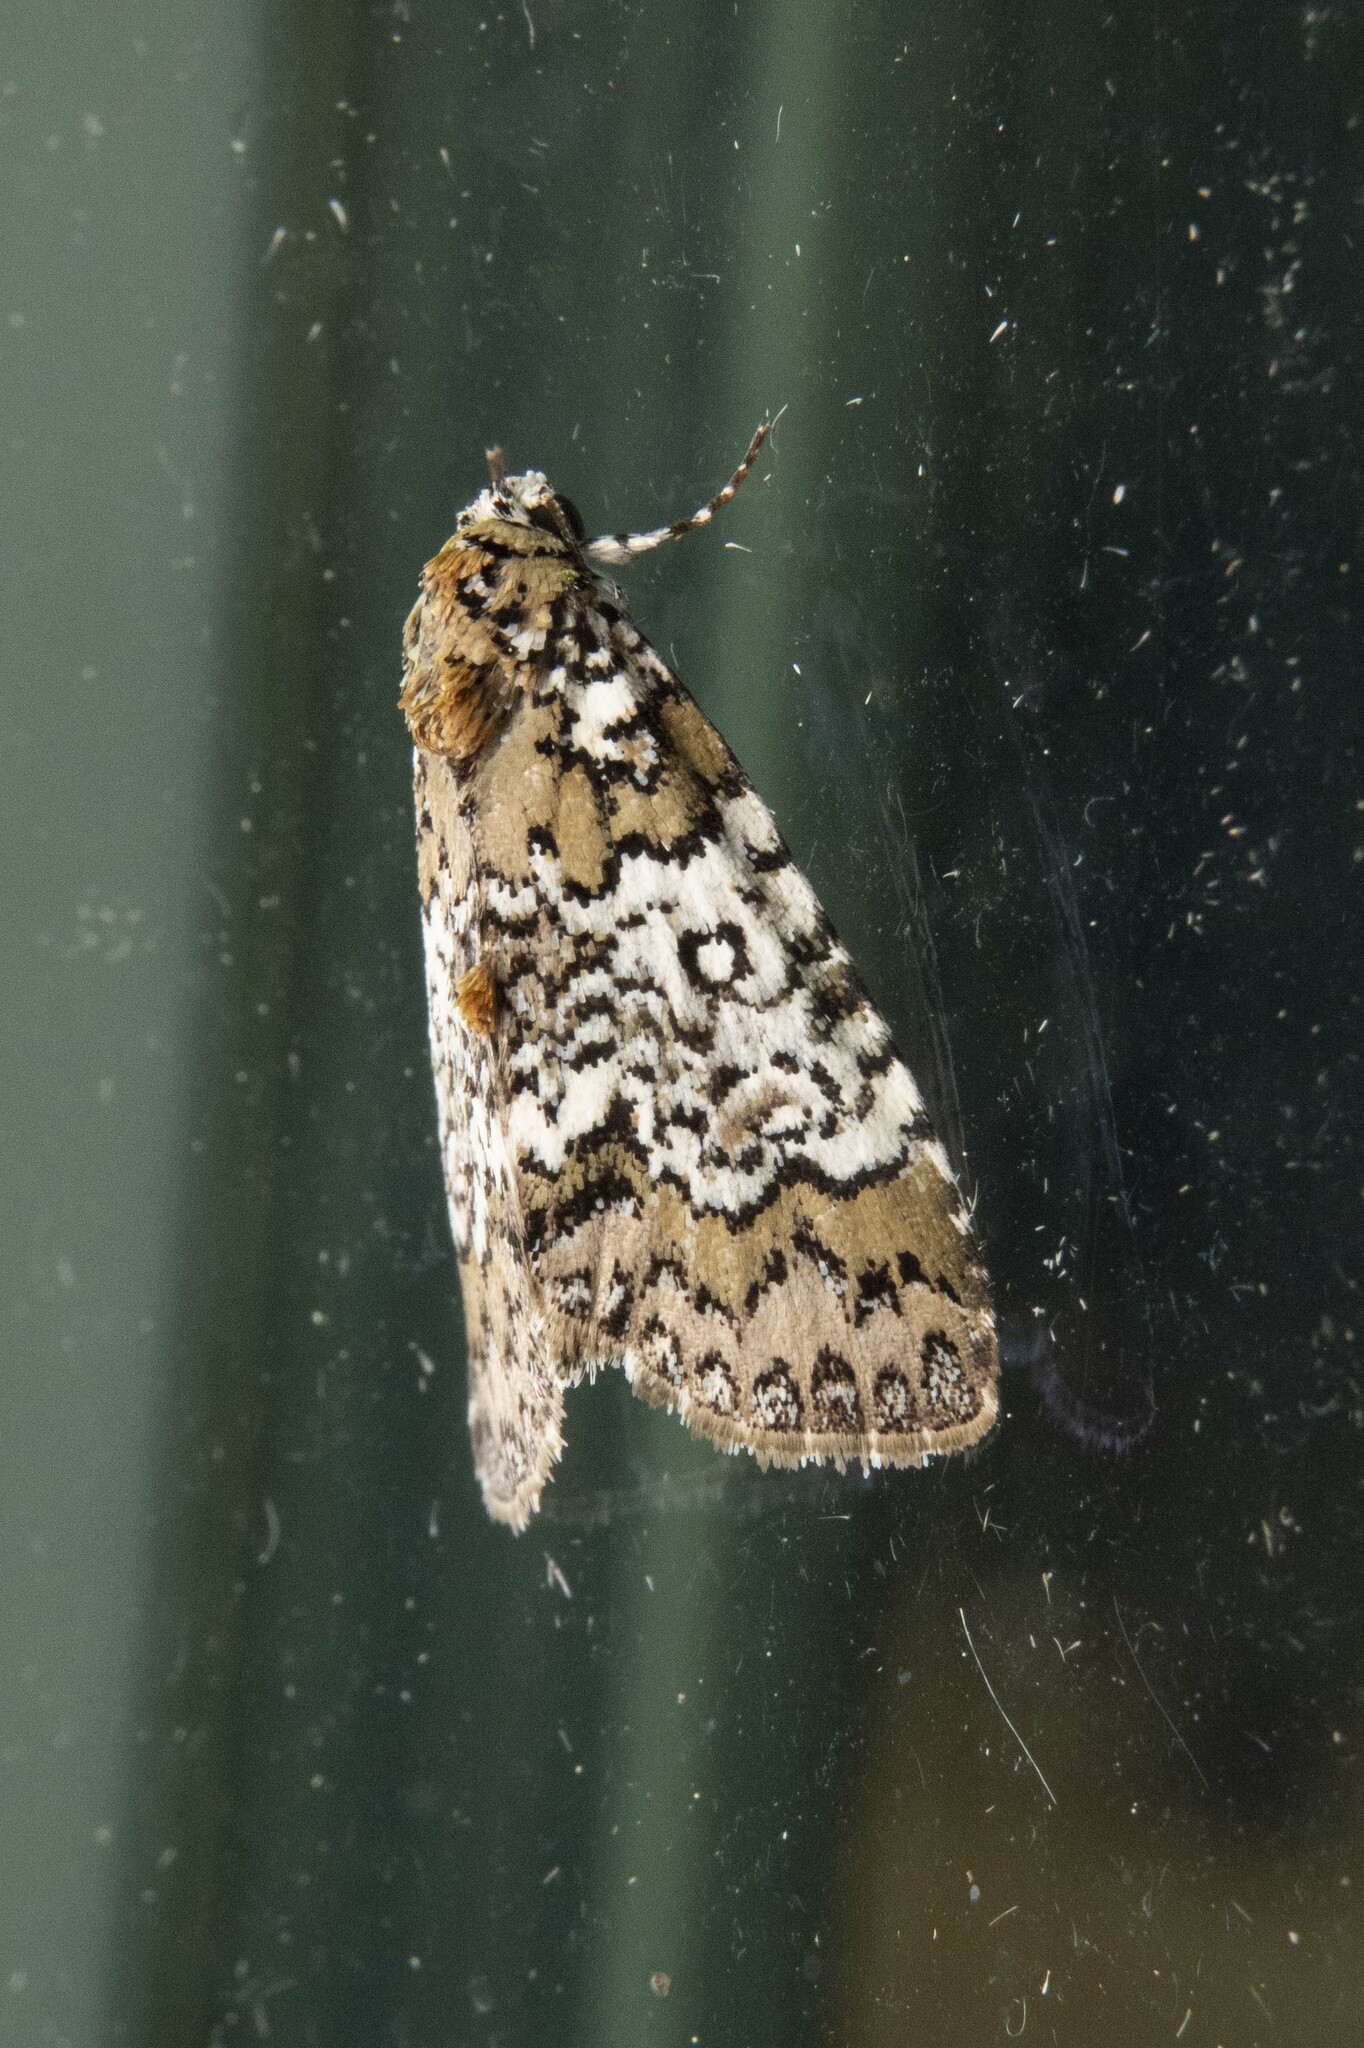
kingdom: Animalia
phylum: Arthropoda
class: Insecta
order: Lepidoptera
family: Noctuidae
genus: Cerma
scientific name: Cerma cora
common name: Bird dropping moth
